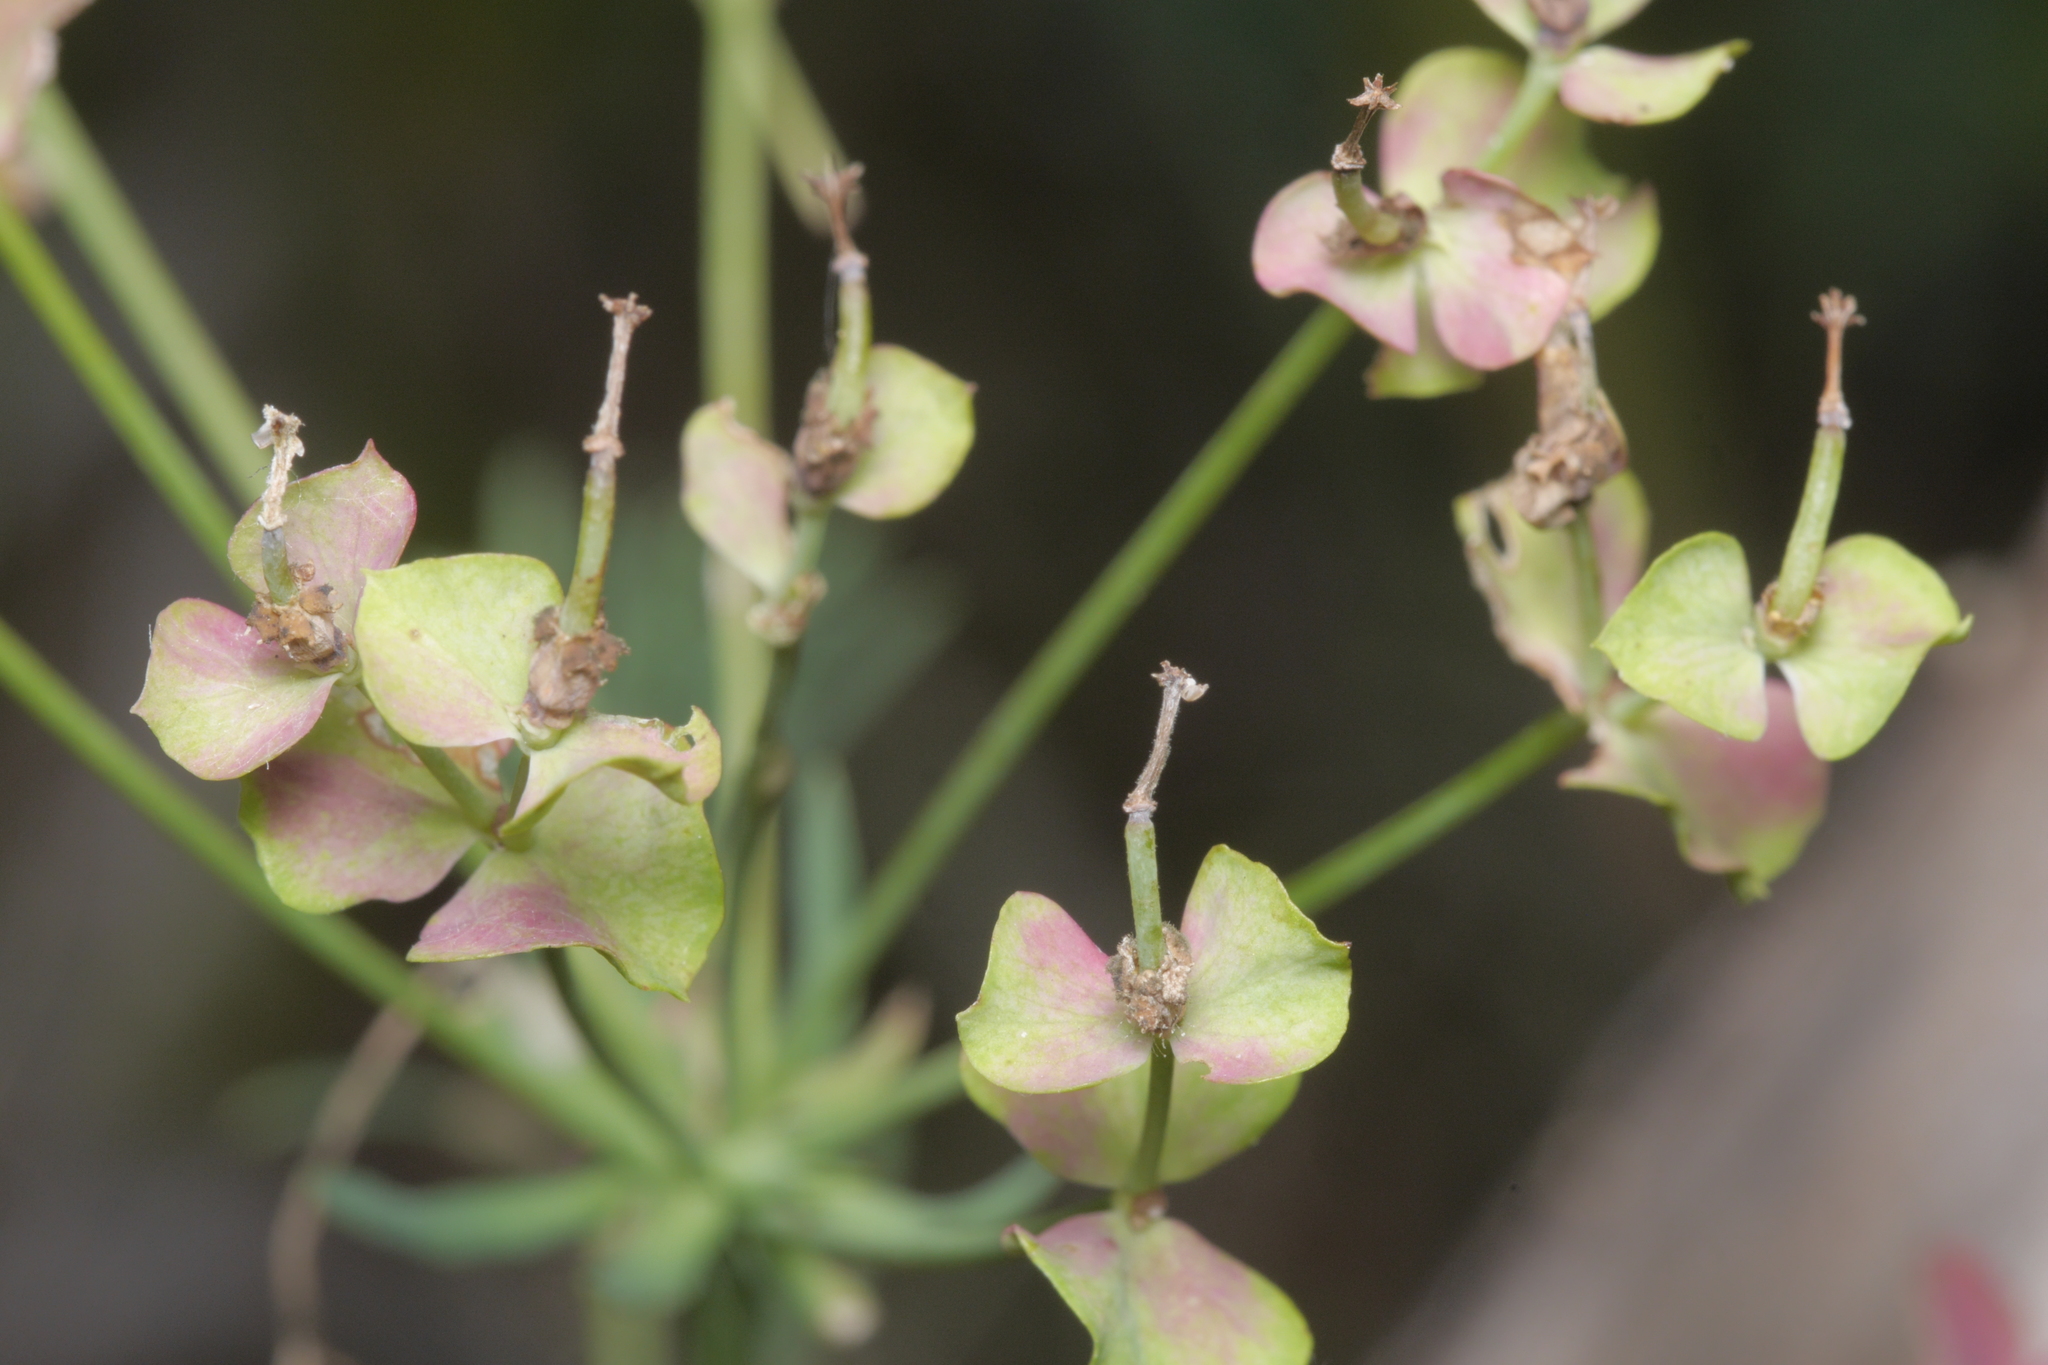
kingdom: Plantae
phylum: Tracheophyta
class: Magnoliopsida
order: Malpighiales
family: Euphorbiaceae
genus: Euphorbia
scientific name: Euphorbia cyparissias
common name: Cypress spurge
